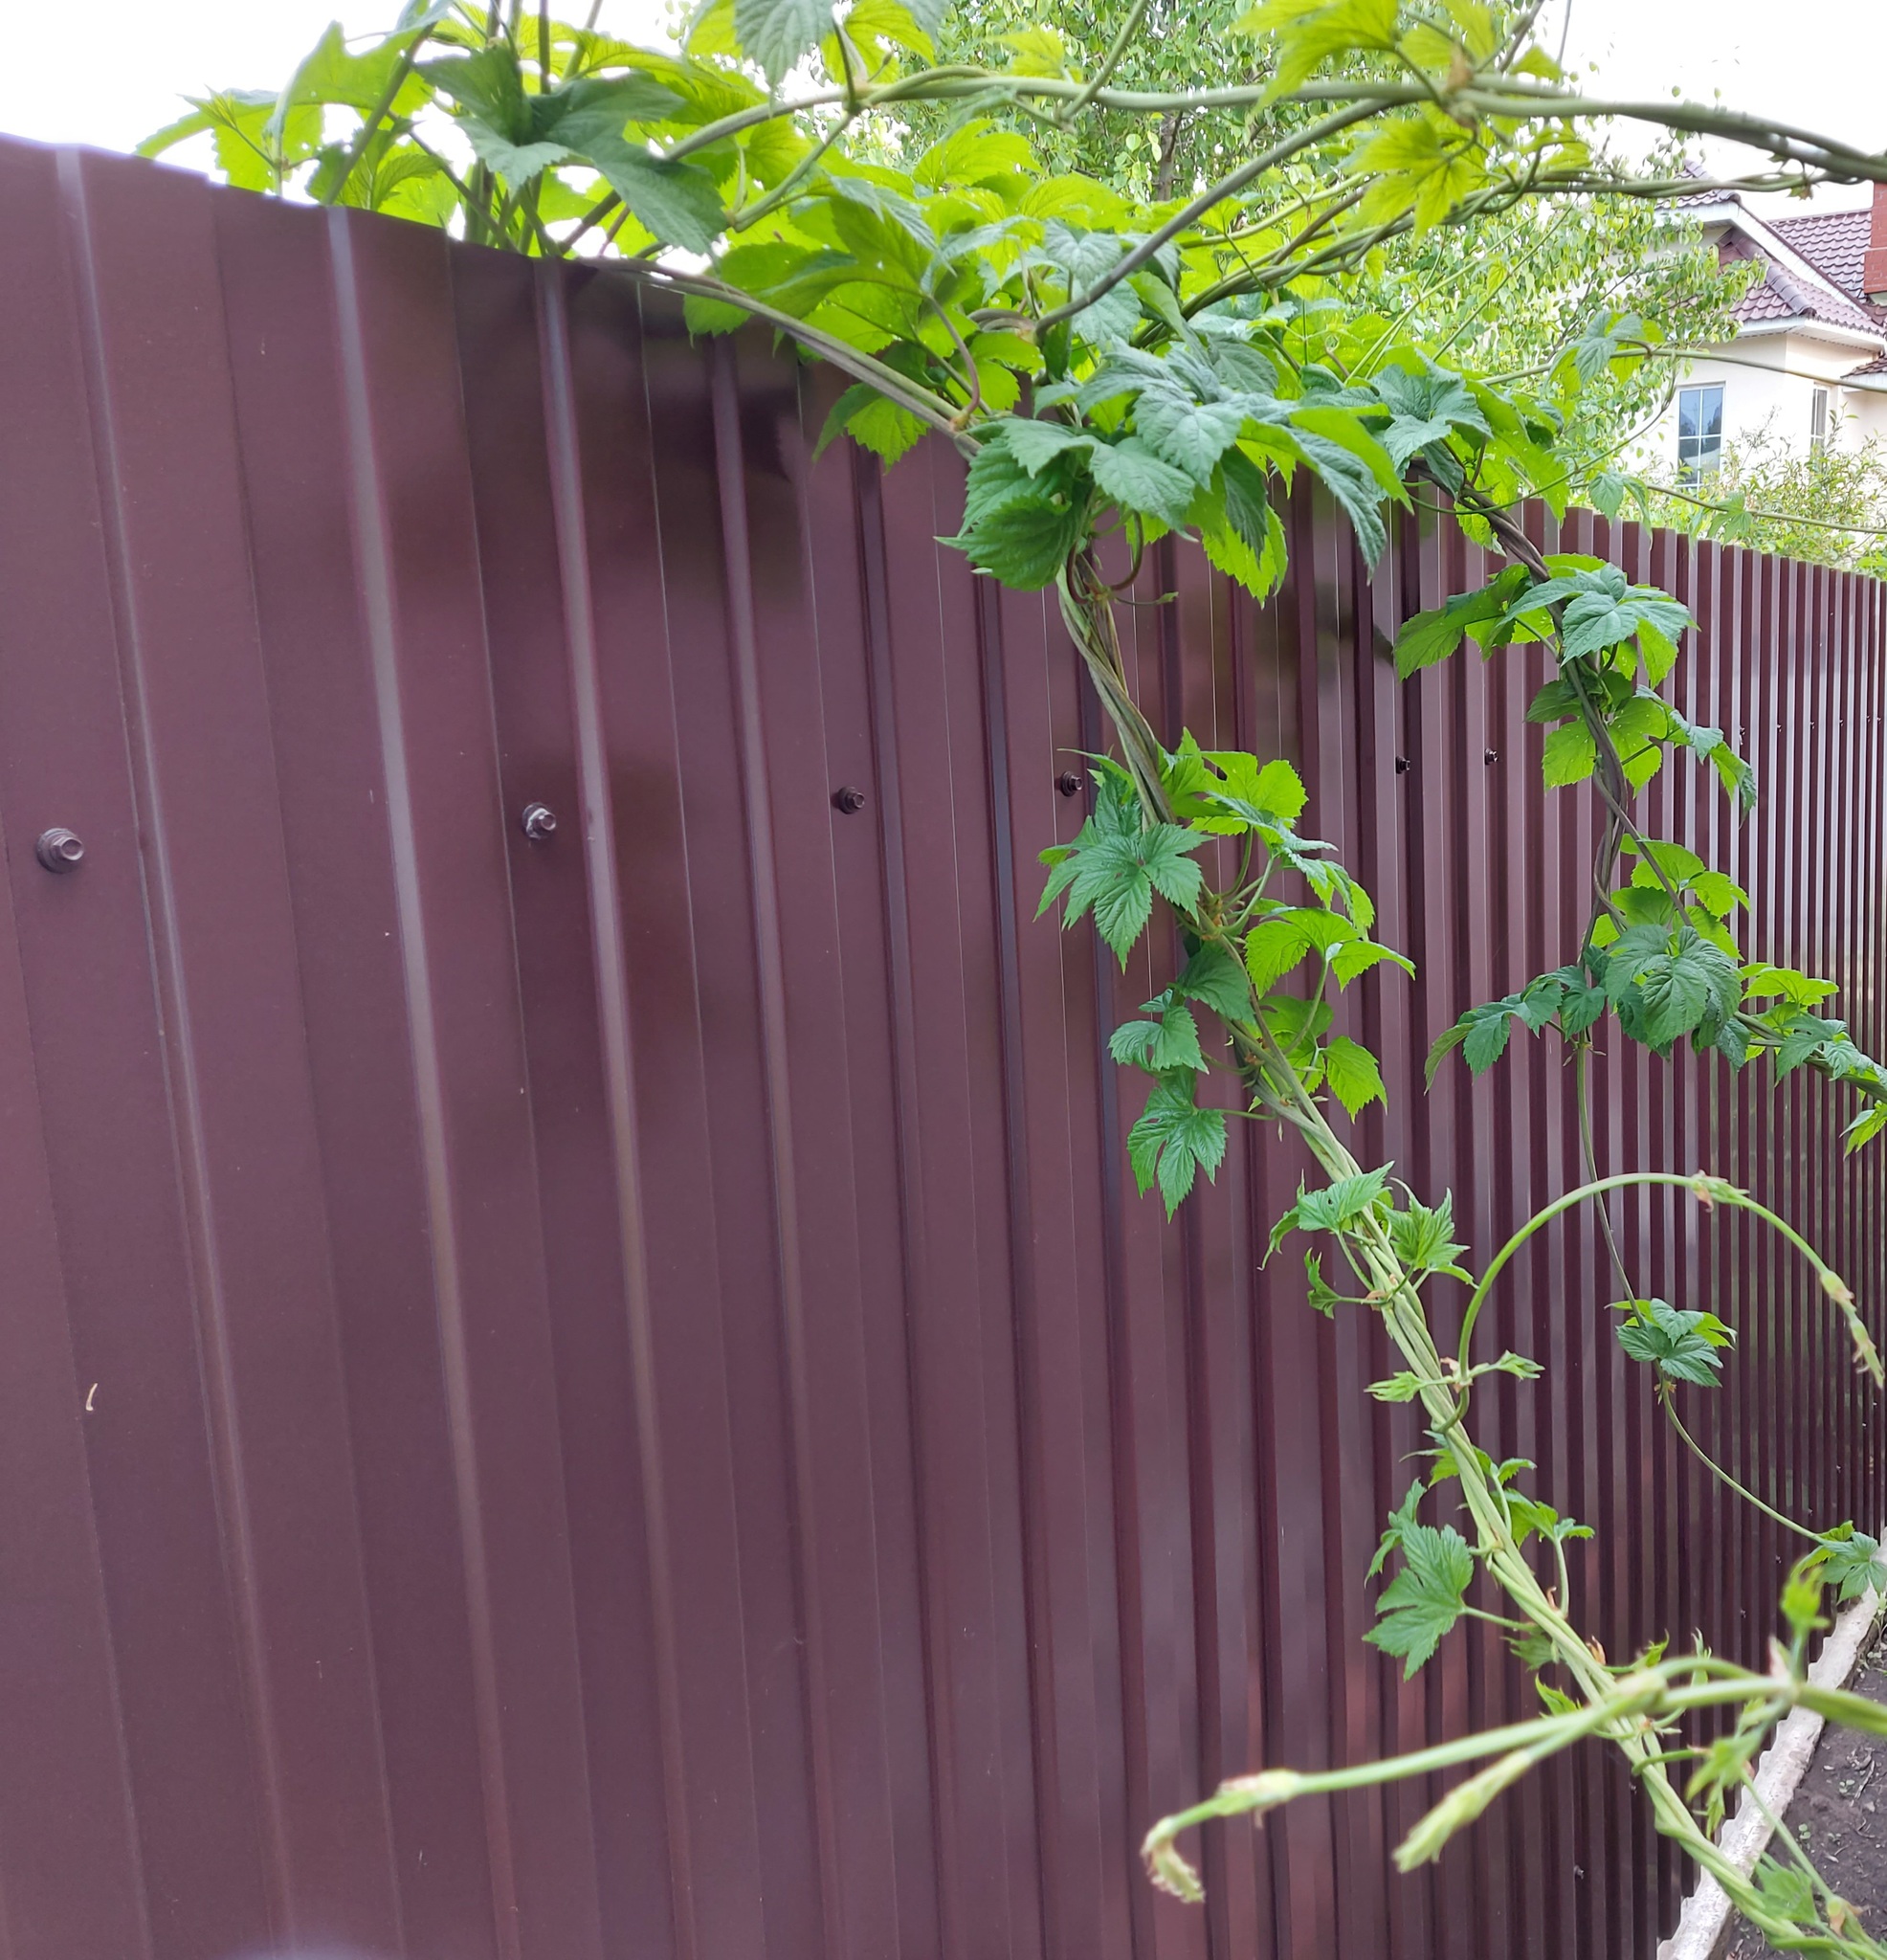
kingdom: Plantae
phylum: Tracheophyta
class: Magnoliopsida
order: Rosales
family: Cannabaceae
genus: Humulus
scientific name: Humulus lupulus
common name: Hop
